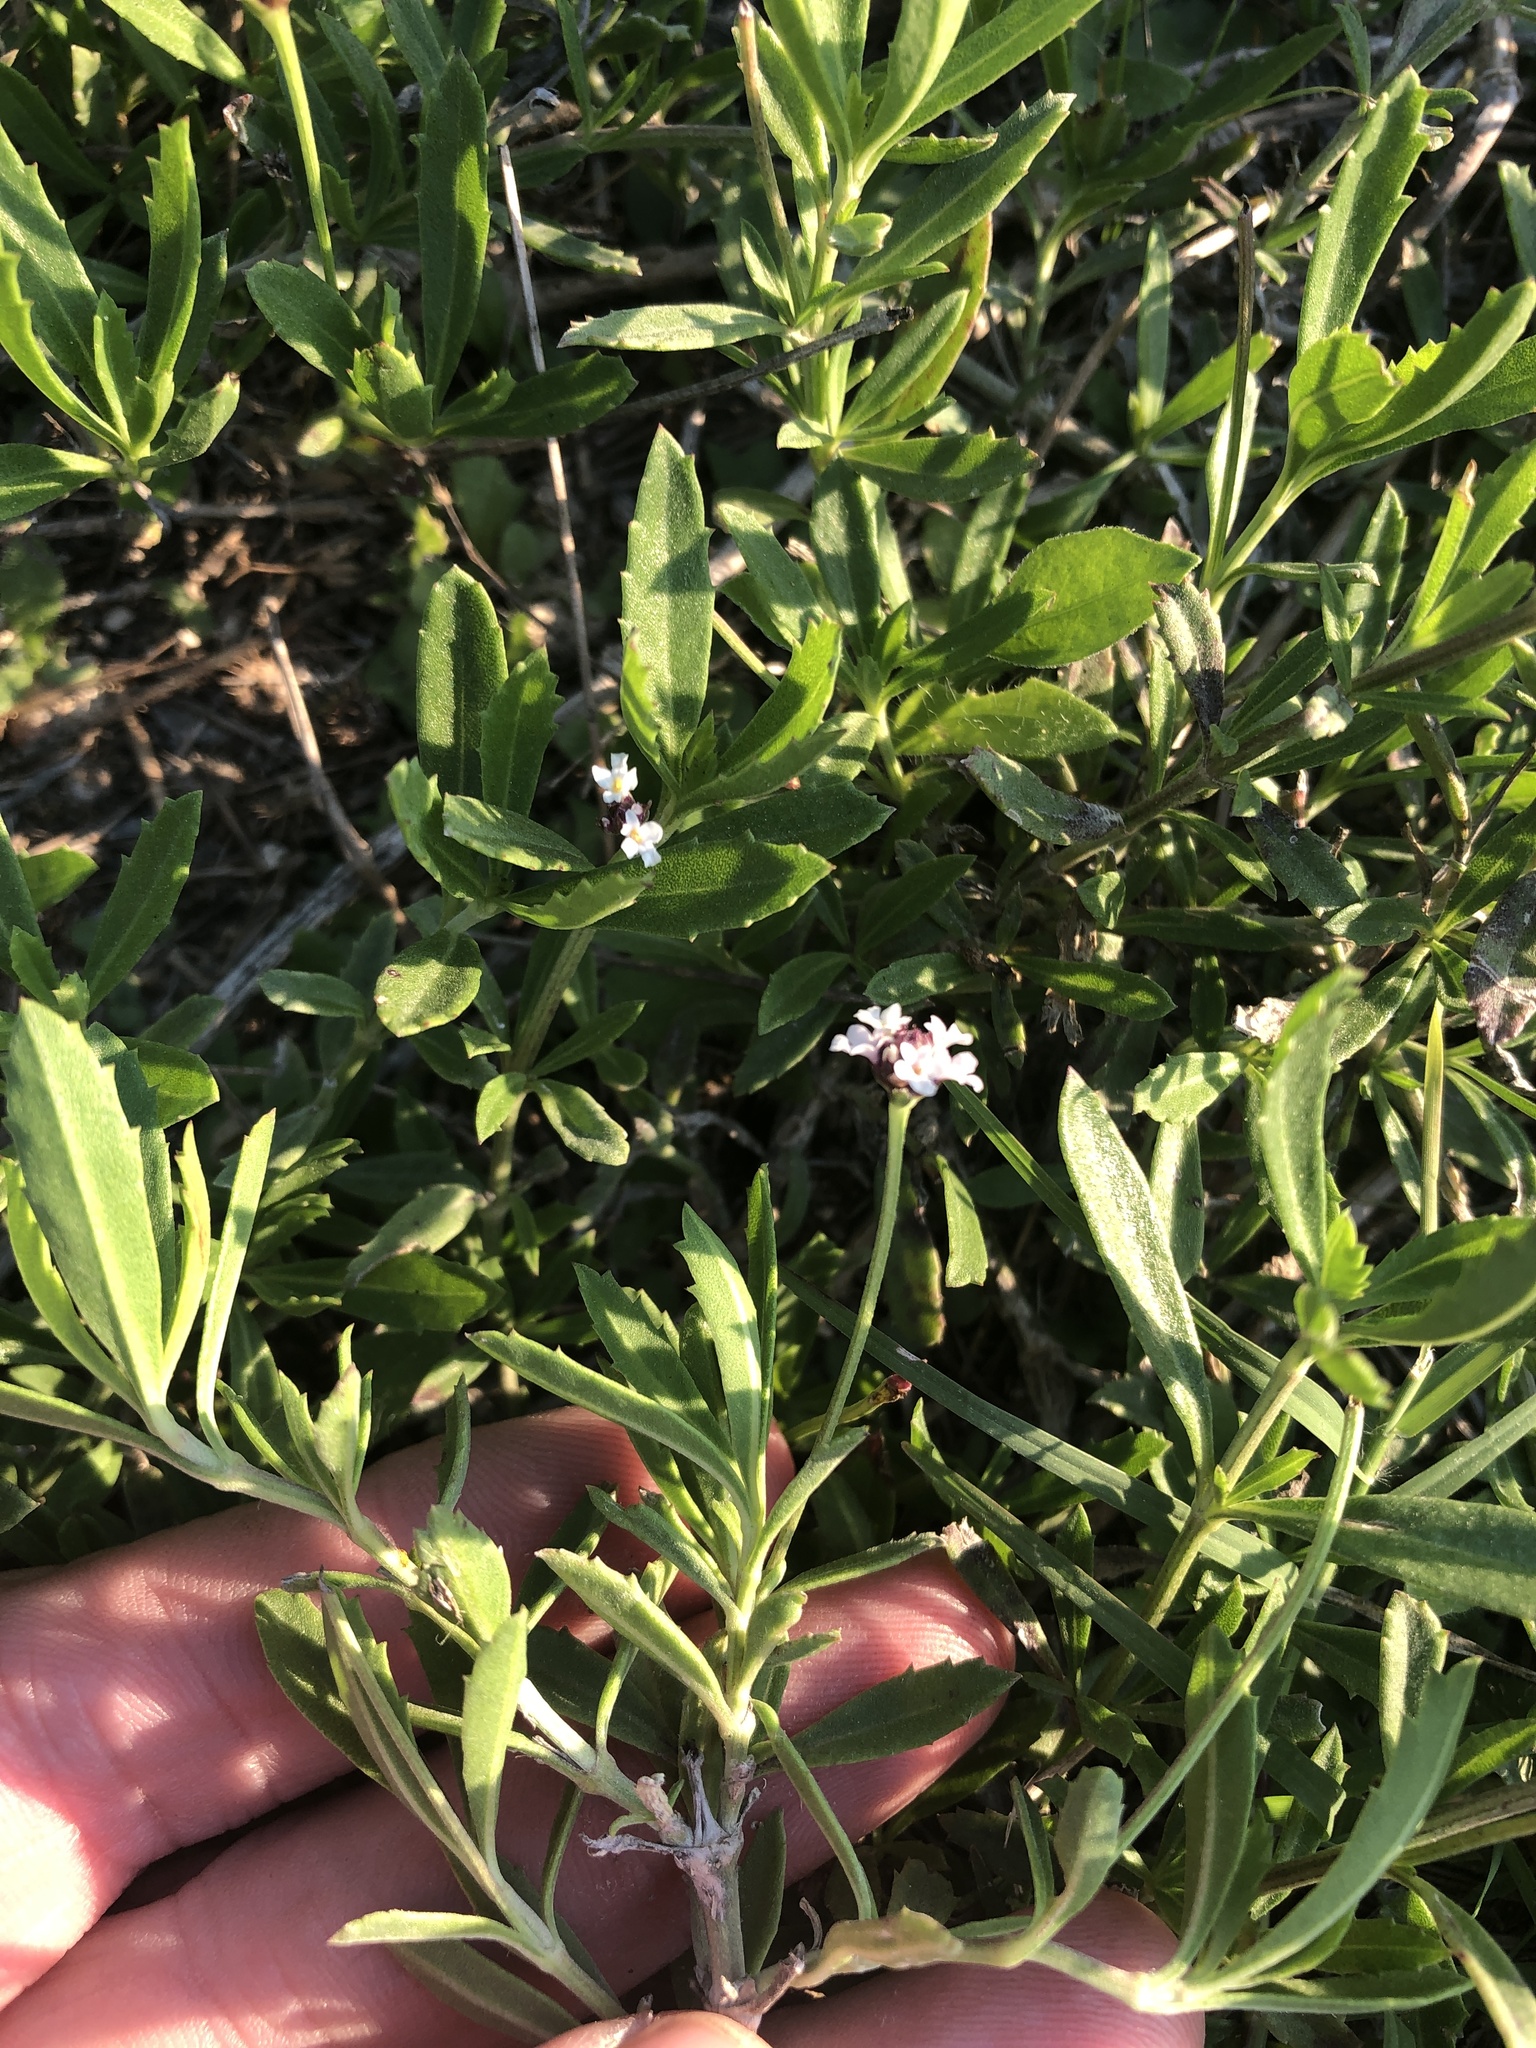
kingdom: Plantae
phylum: Tracheophyta
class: Magnoliopsida
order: Lamiales
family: Verbenaceae
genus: Phyla
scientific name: Phyla nodiflora
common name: Frogfruit
